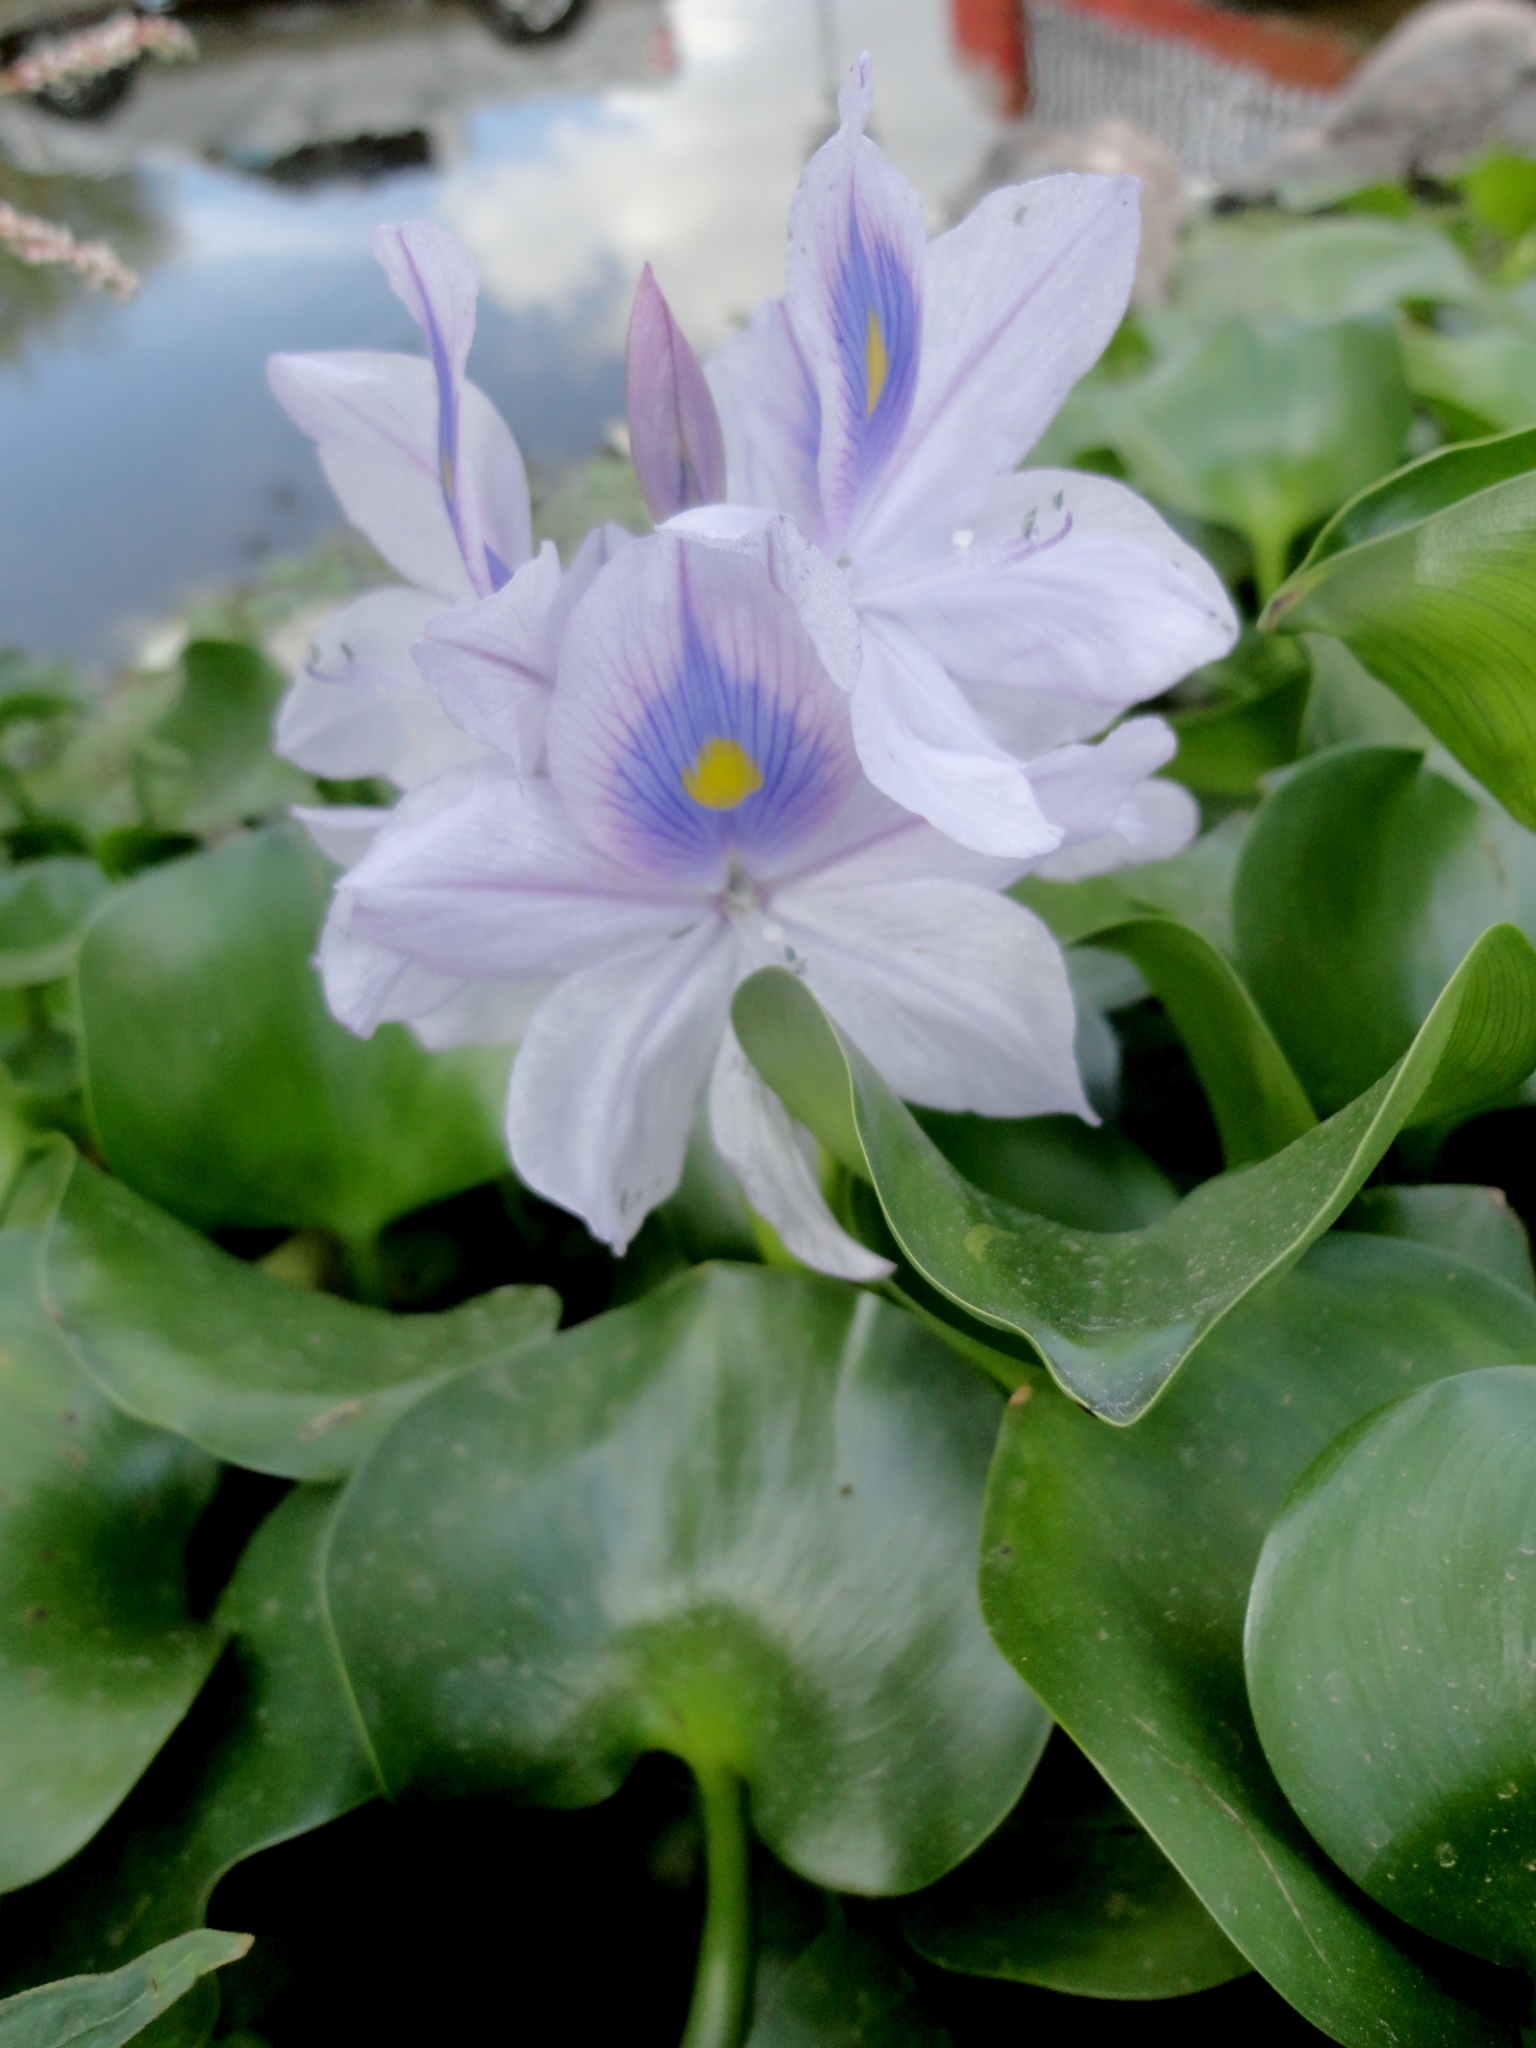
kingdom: Plantae
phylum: Tracheophyta
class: Liliopsida
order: Commelinales
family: Pontederiaceae
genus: Pontederia
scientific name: Pontederia crassipes
